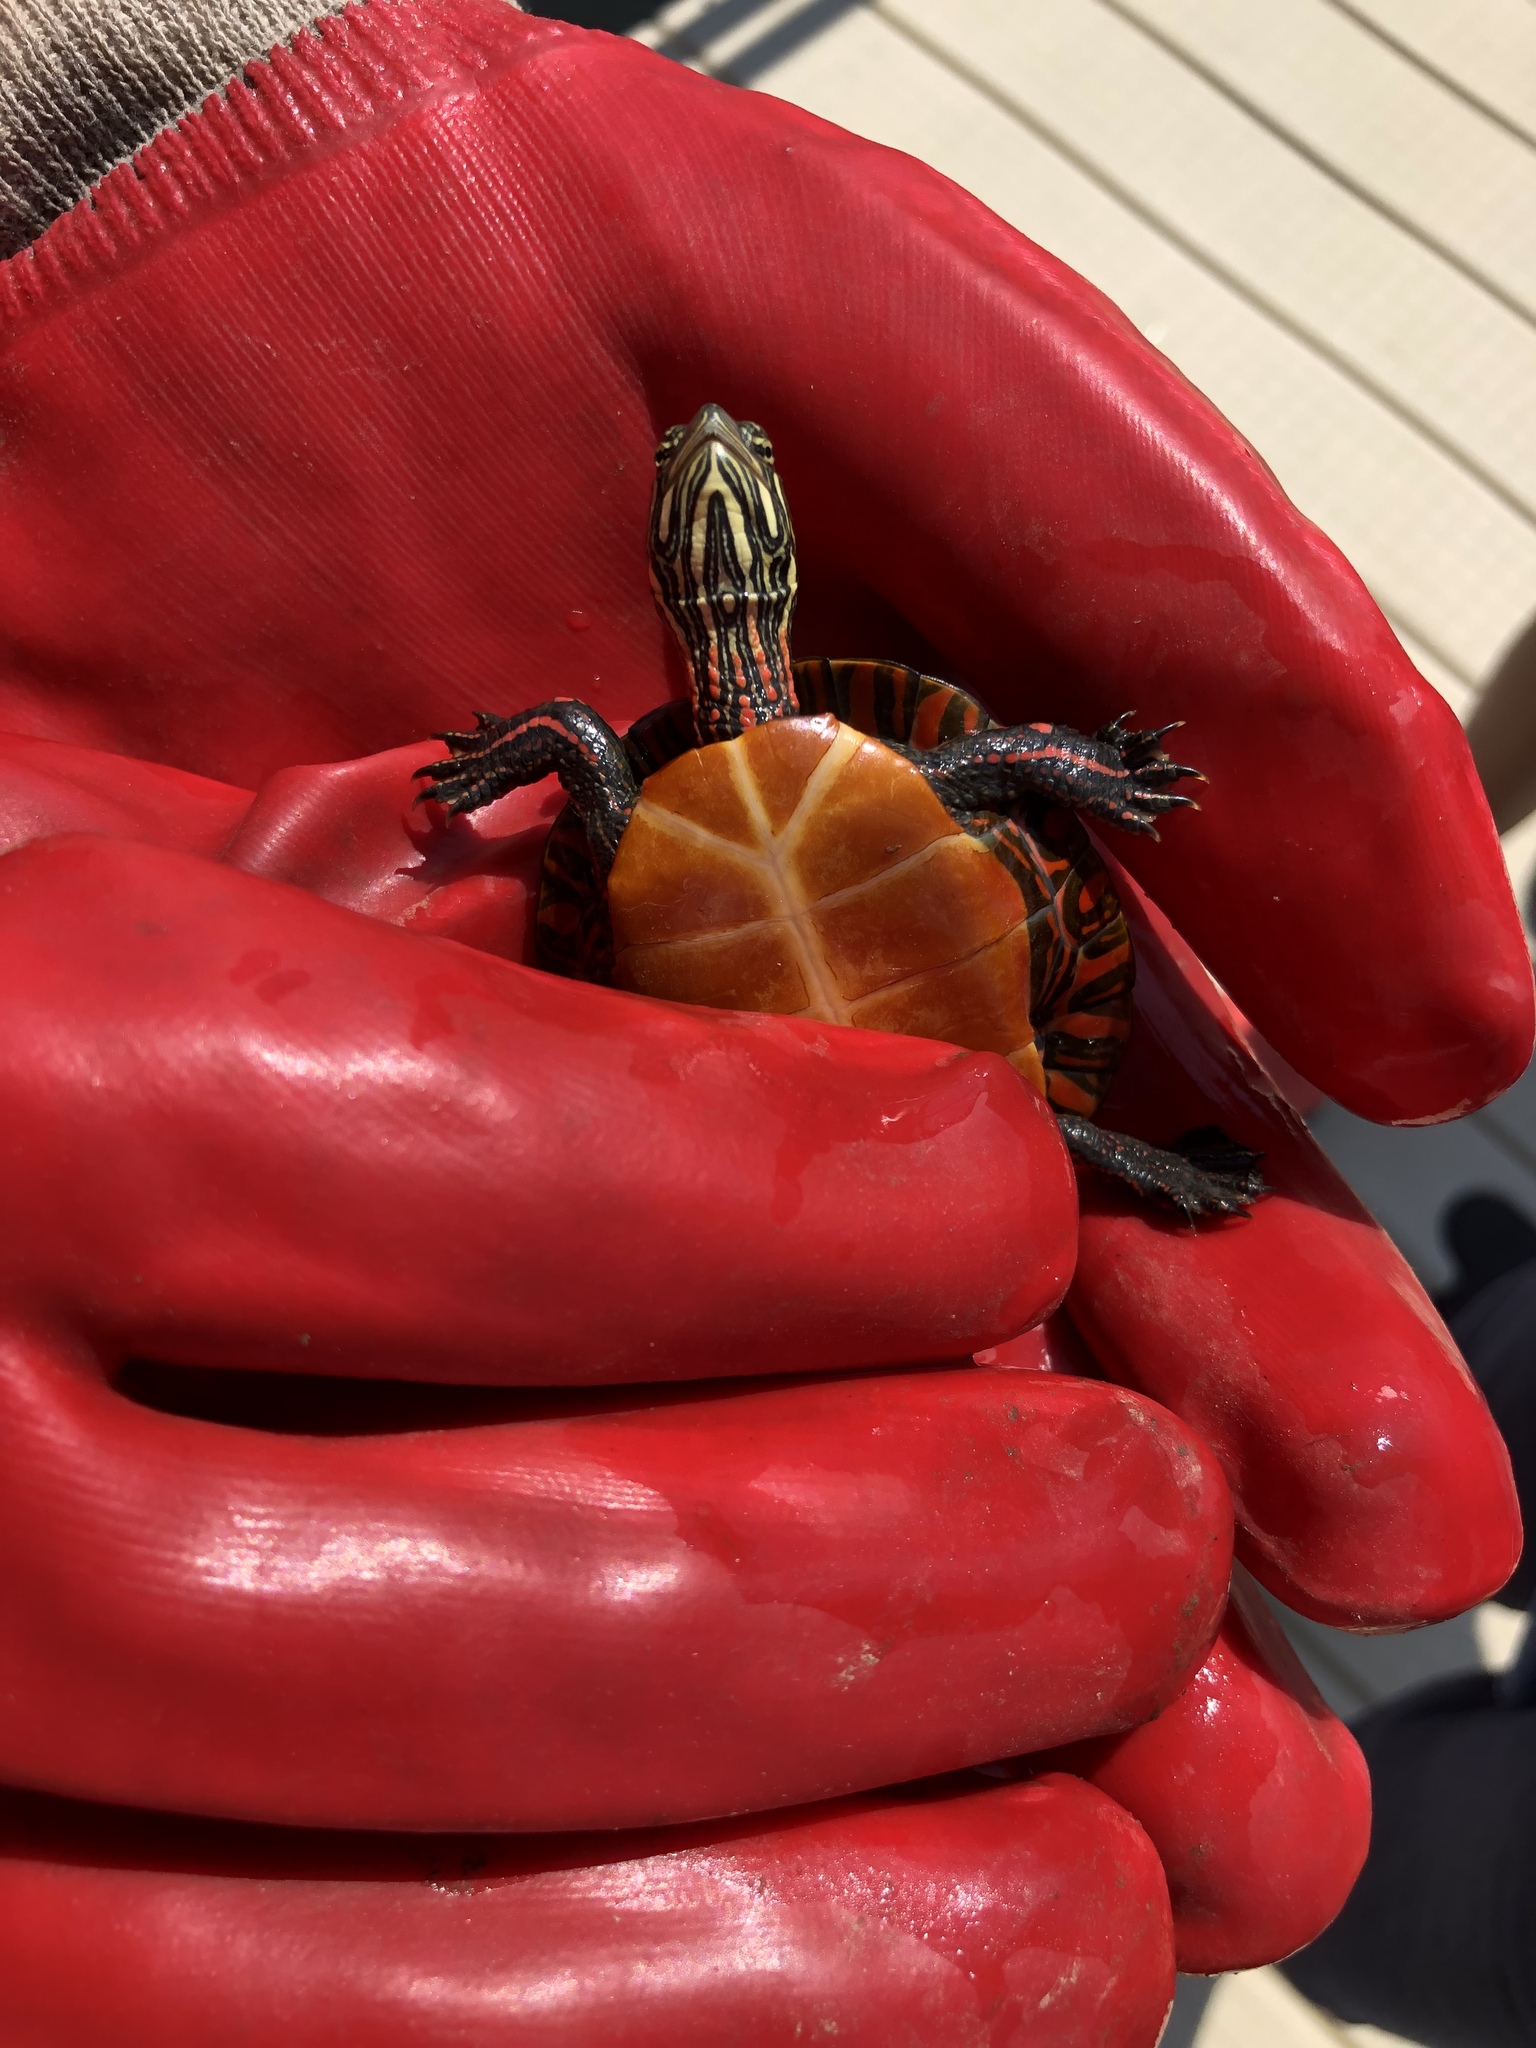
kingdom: Animalia
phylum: Chordata
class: Testudines
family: Emydidae
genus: Chrysemys
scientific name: Chrysemys picta
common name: Painted turtle
